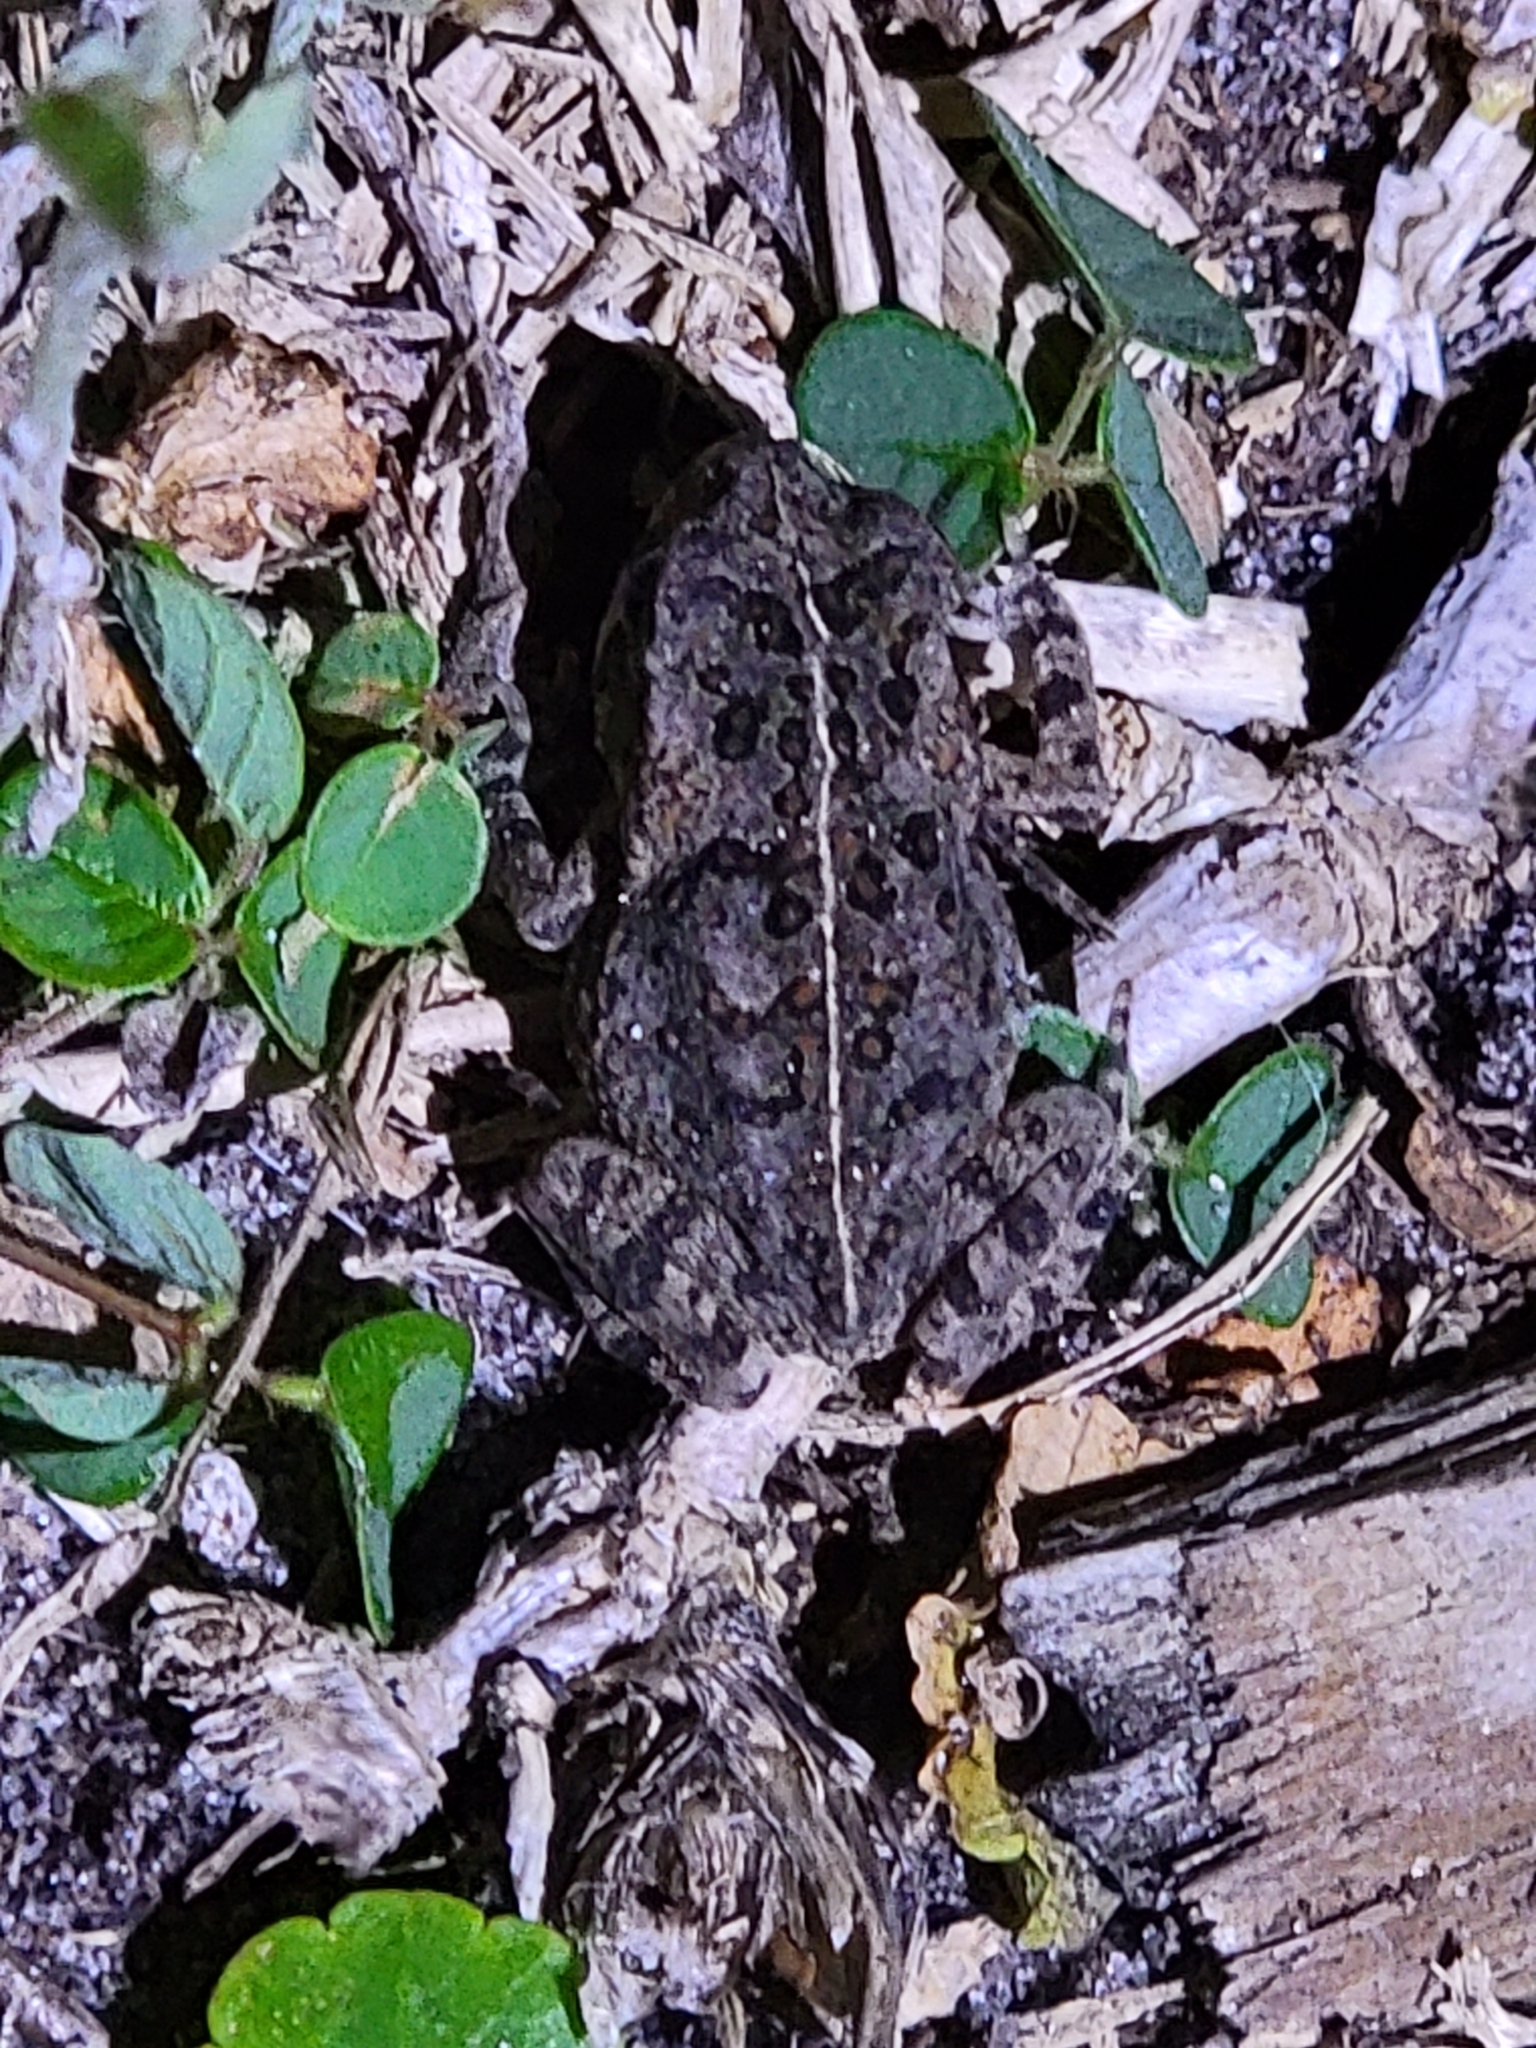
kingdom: Animalia
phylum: Chordata
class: Amphibia
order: Anura
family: Bufonidae
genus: Rhinella
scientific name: Rhinella marina
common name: Cane toad
